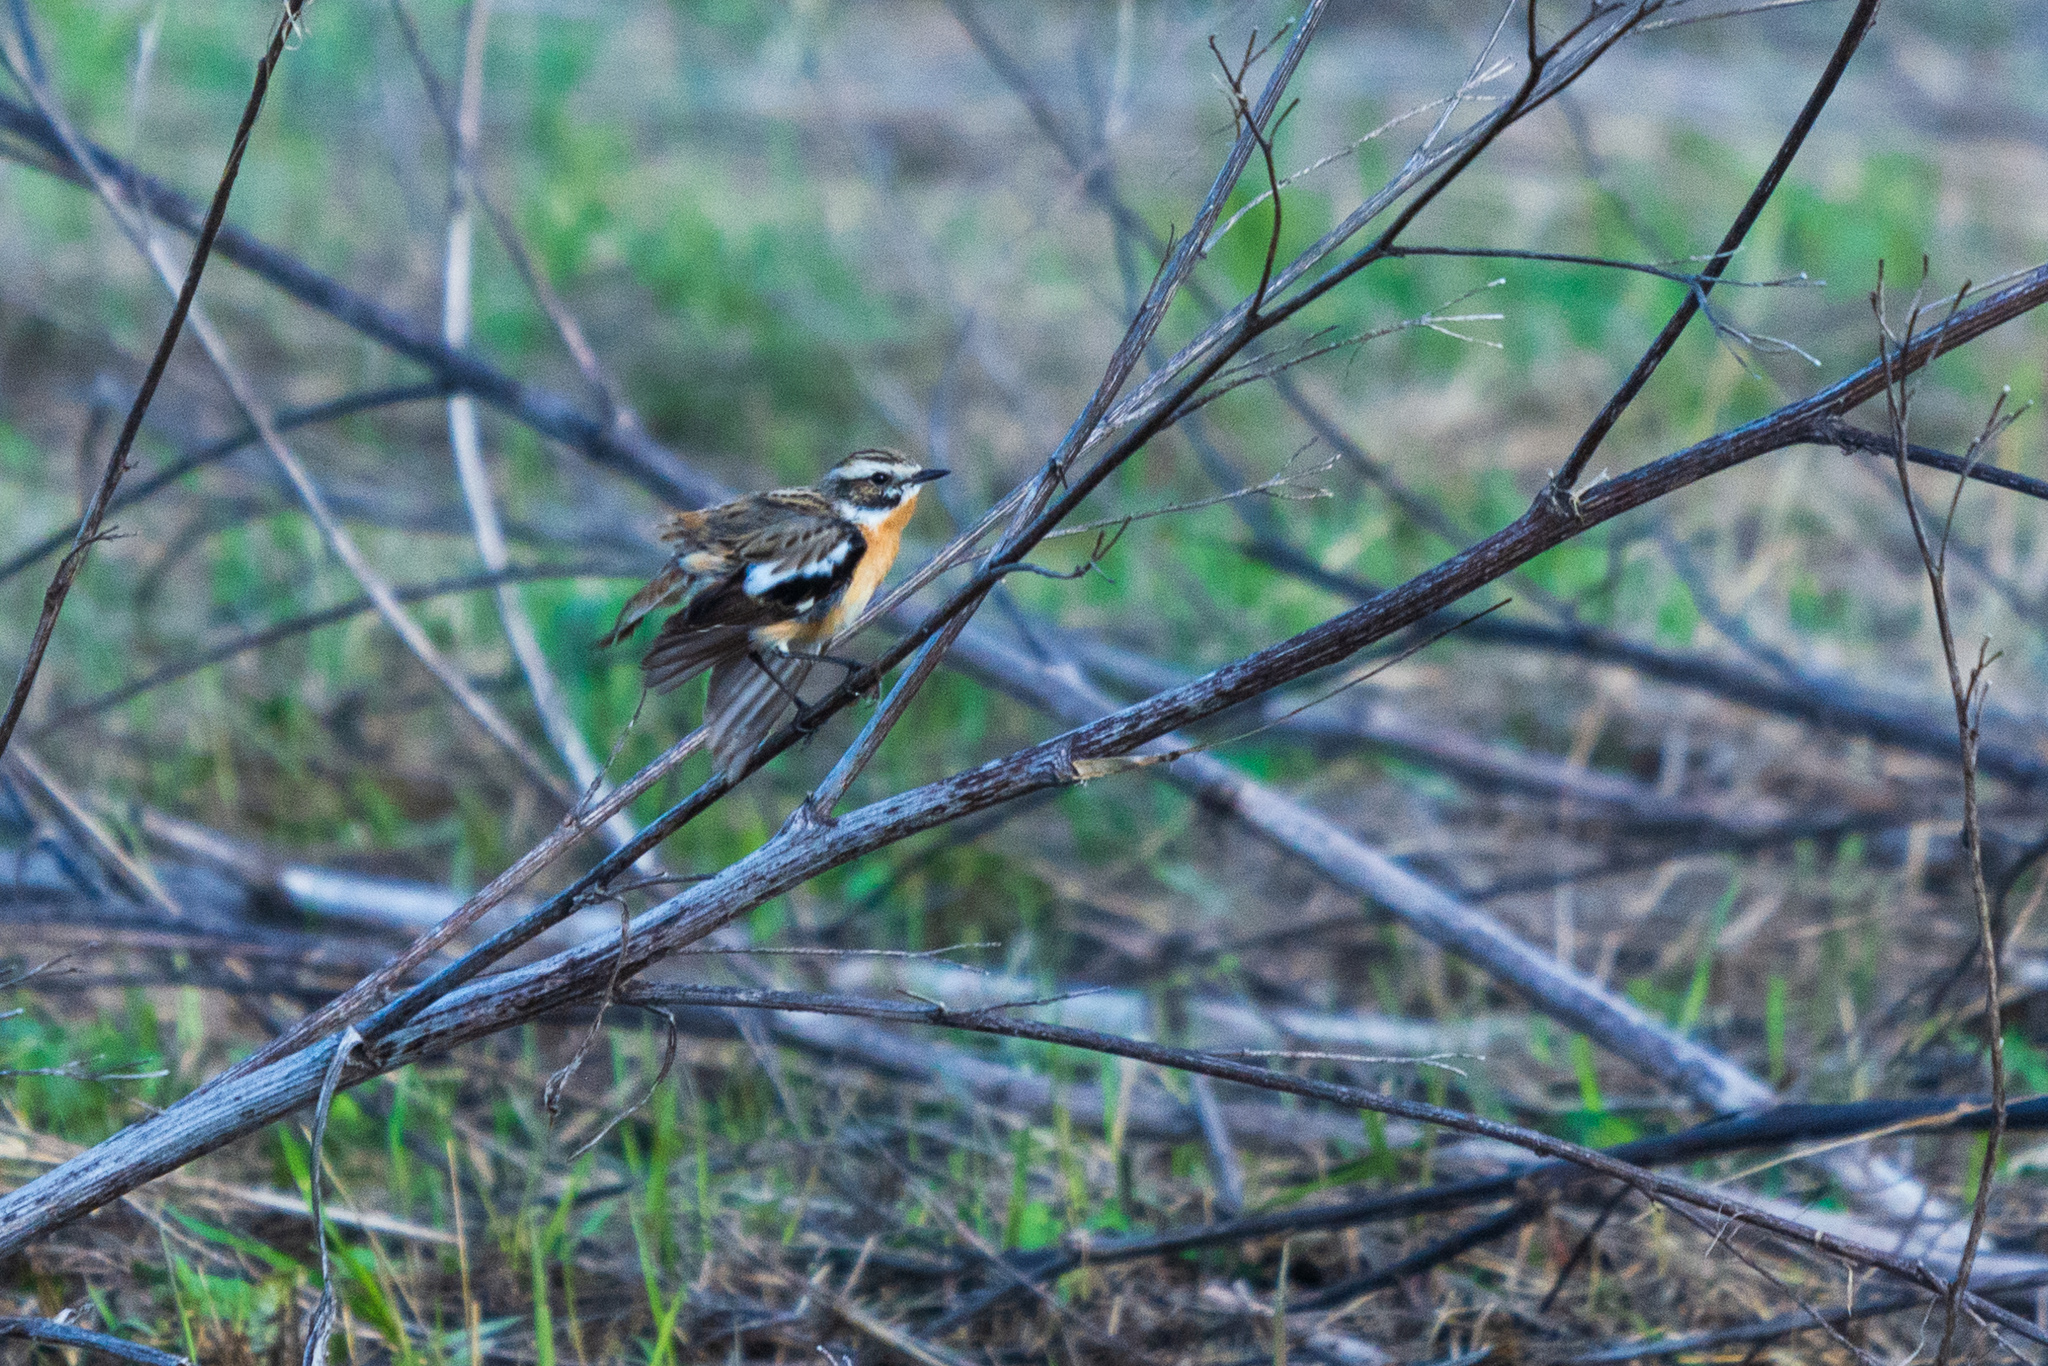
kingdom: Animalia
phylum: Chordata
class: Aves
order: Passeriformes
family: Muscicapidae
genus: Saxicola
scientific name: Saxicola rubetra
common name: Whinchat
